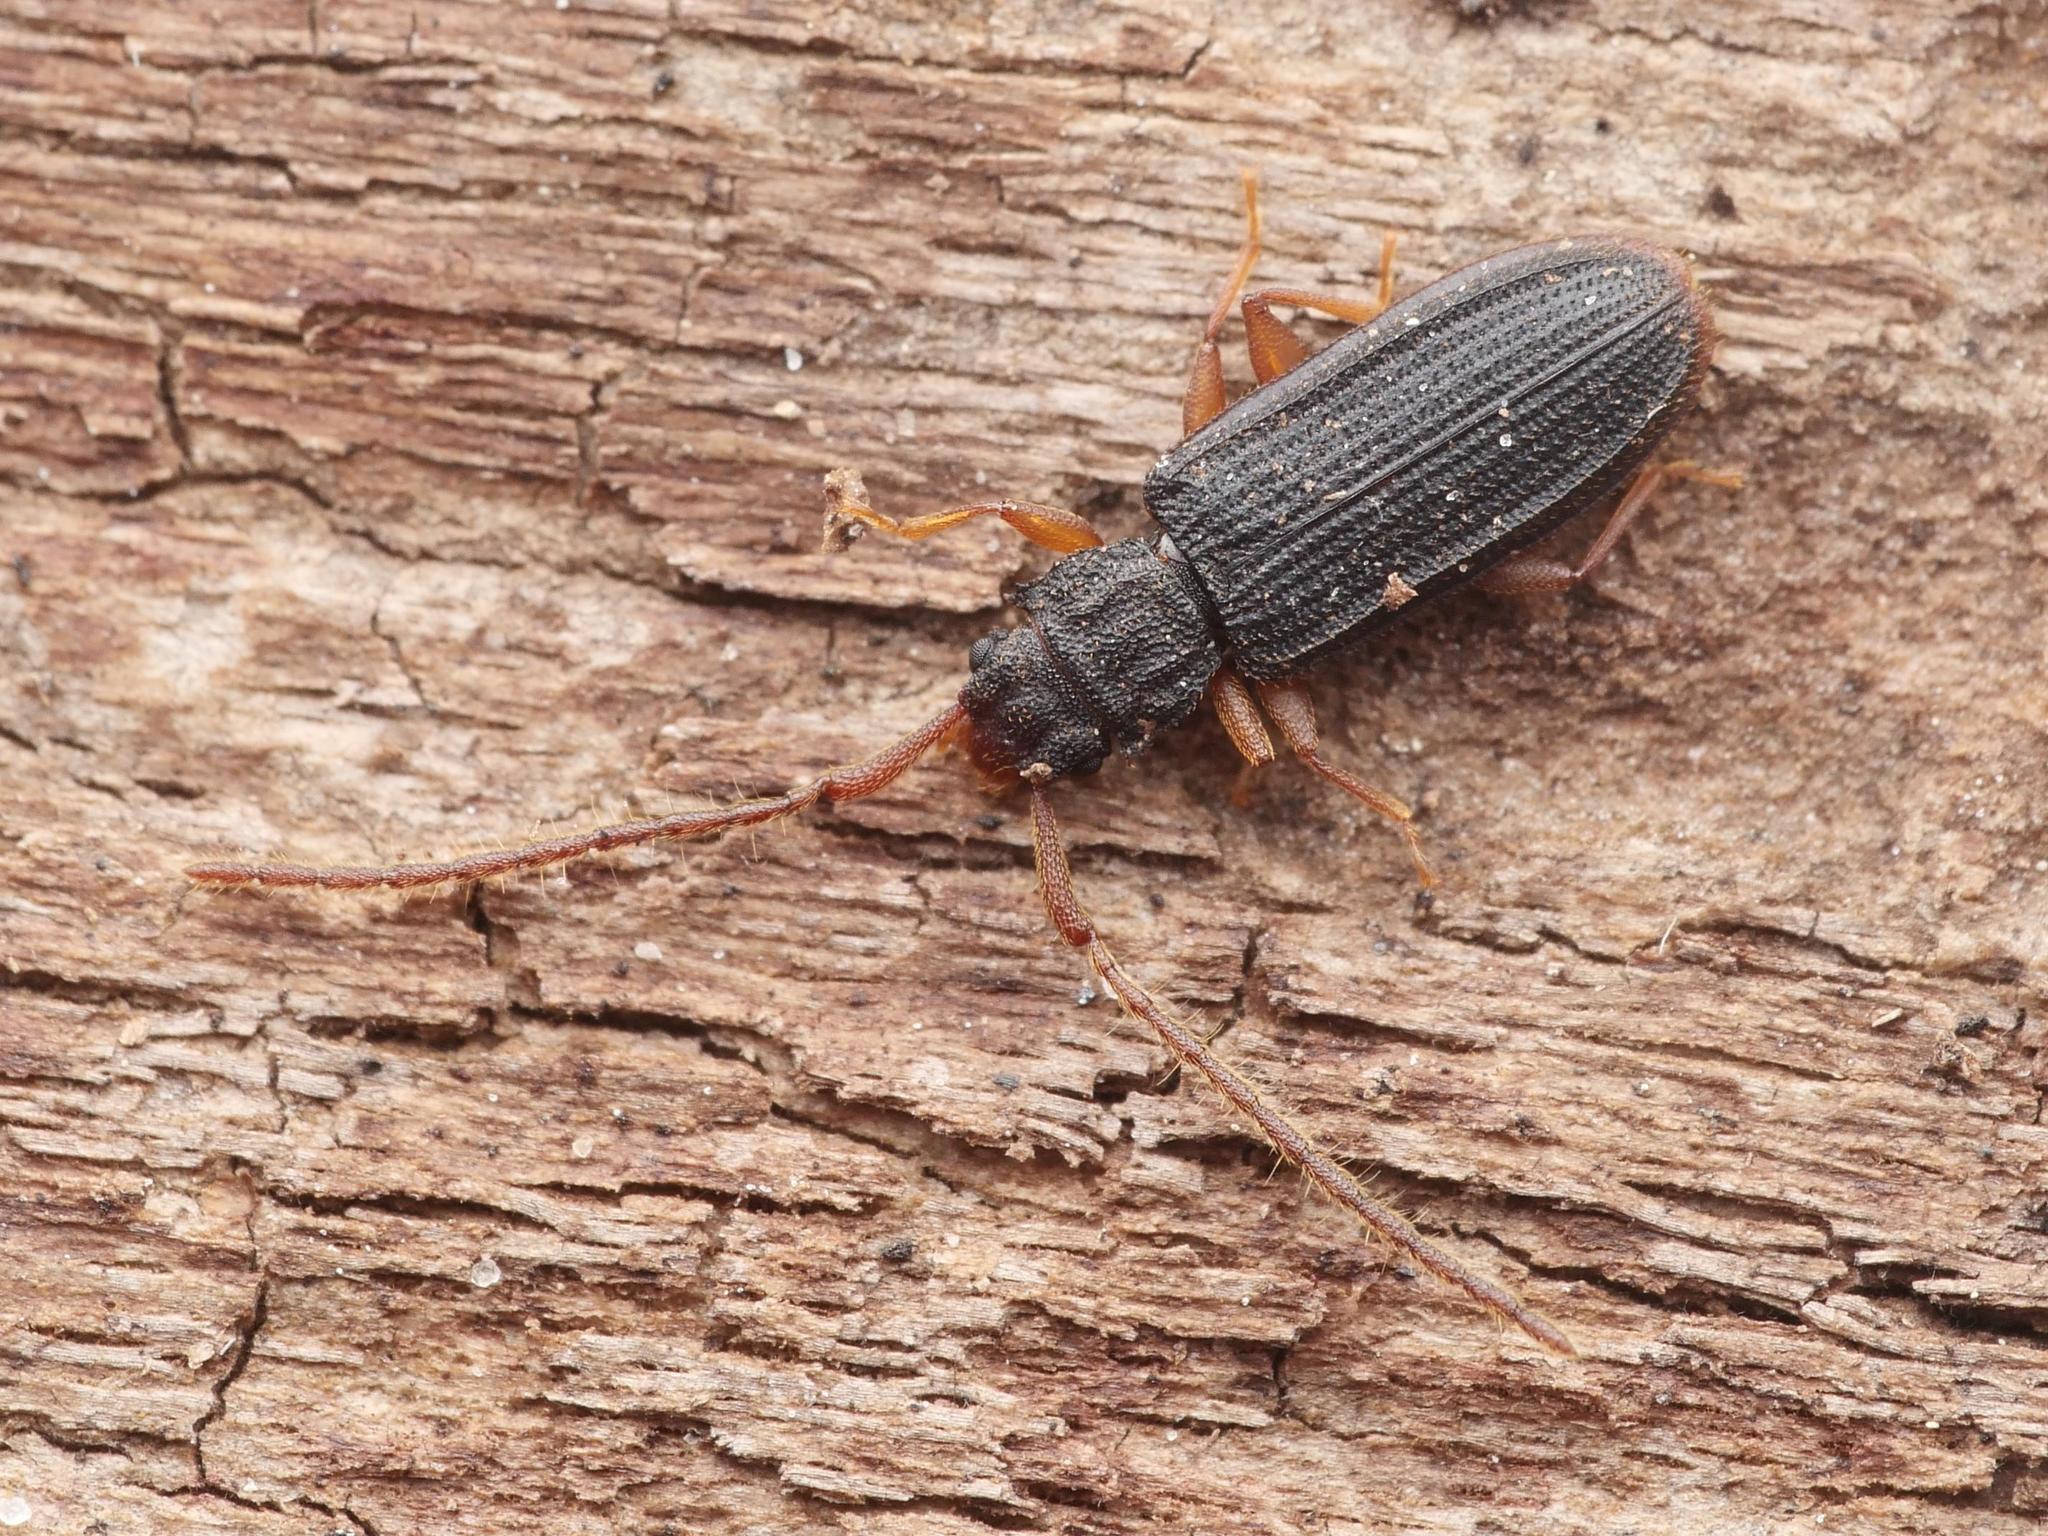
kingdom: Animalia
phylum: Arthropoda
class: Insecta
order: Coleoptera
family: Silvanidae
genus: Uleiota
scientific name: Uleiota planatus
